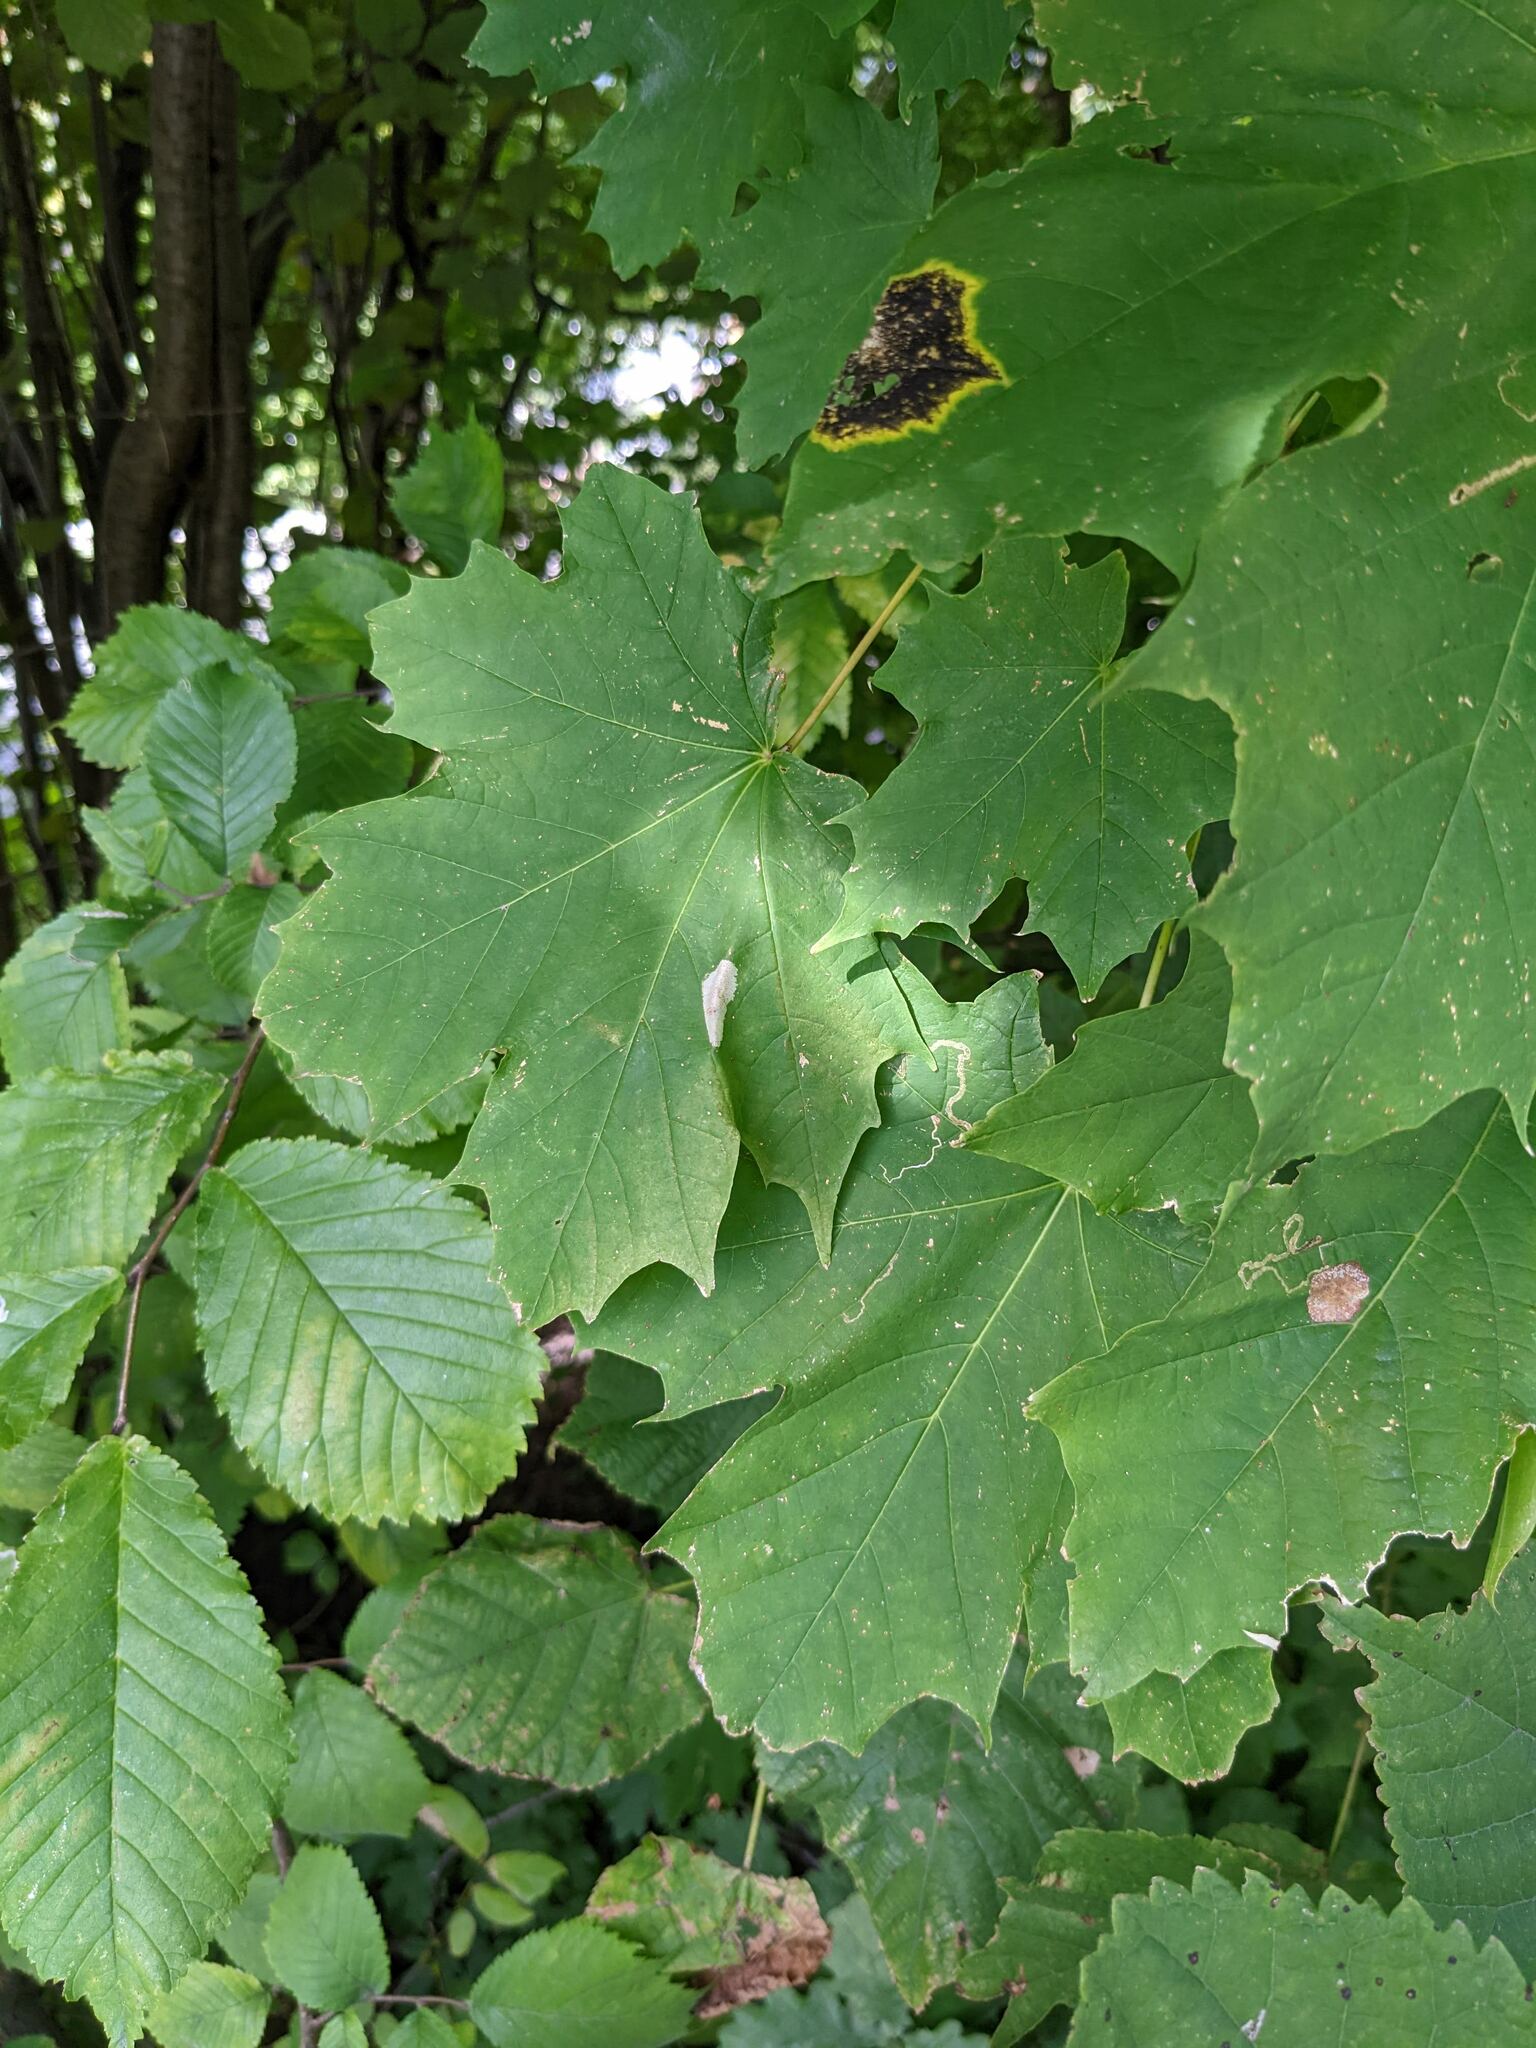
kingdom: Plantae
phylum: Tracheophyta
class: Magnoliopsida
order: Sapindales
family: Sapindaceae
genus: Acer
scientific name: Acer platanoides
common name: Norway maple
